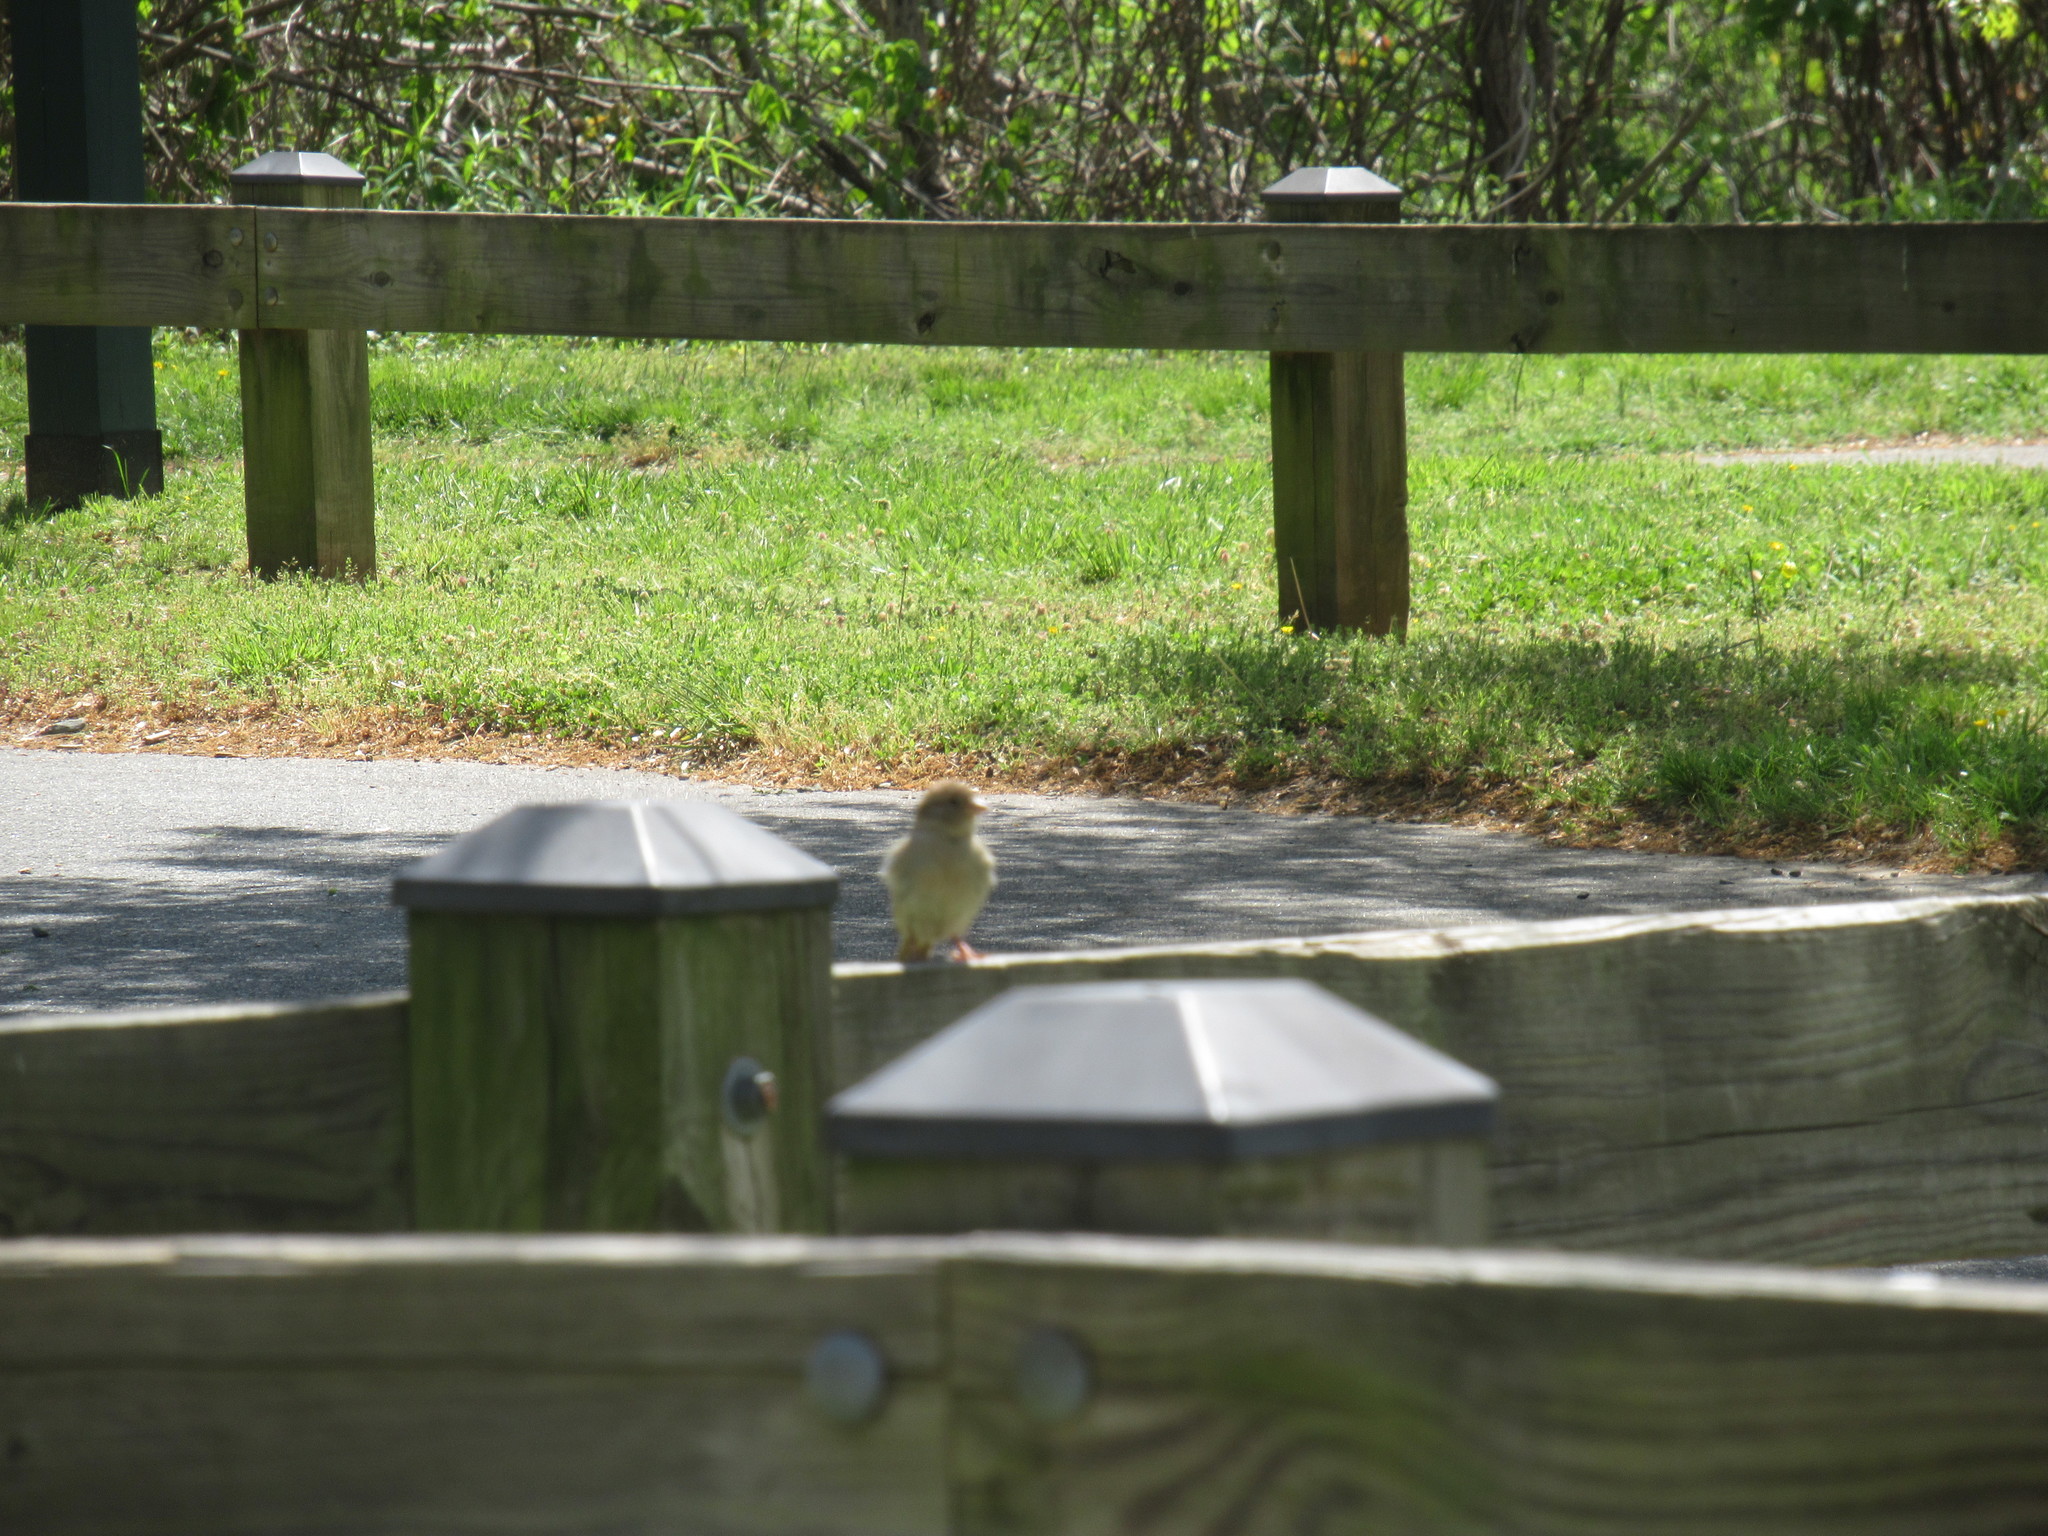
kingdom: Animalia
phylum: Chordata
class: Aves
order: Passeriformes
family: Passeridae
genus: Passer
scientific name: Passer domesticus
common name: House sparrow
